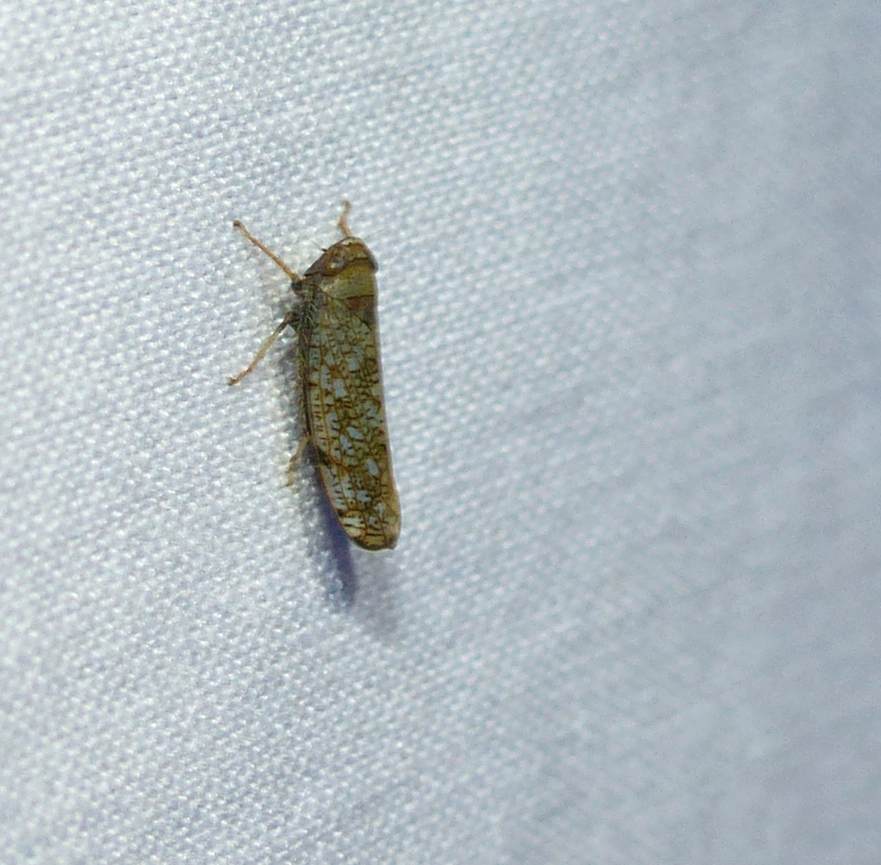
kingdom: Animalia
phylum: Arthropoda
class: Insecta
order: Hemiptera
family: Cicadellidae
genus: Orientus
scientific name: Orientus ishidae
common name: Japanese leafhopper
